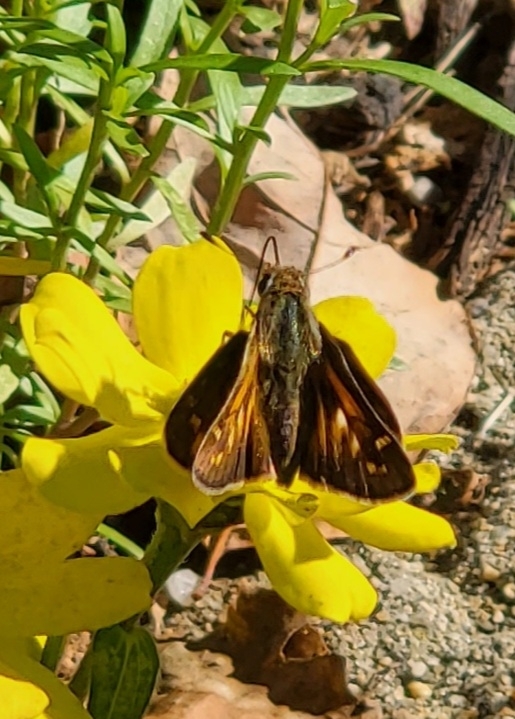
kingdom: Animalia
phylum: Arthropoda
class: Insecta
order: Lepidoptera
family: Hesperiidae
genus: Atalopedes
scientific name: Atalopedes
